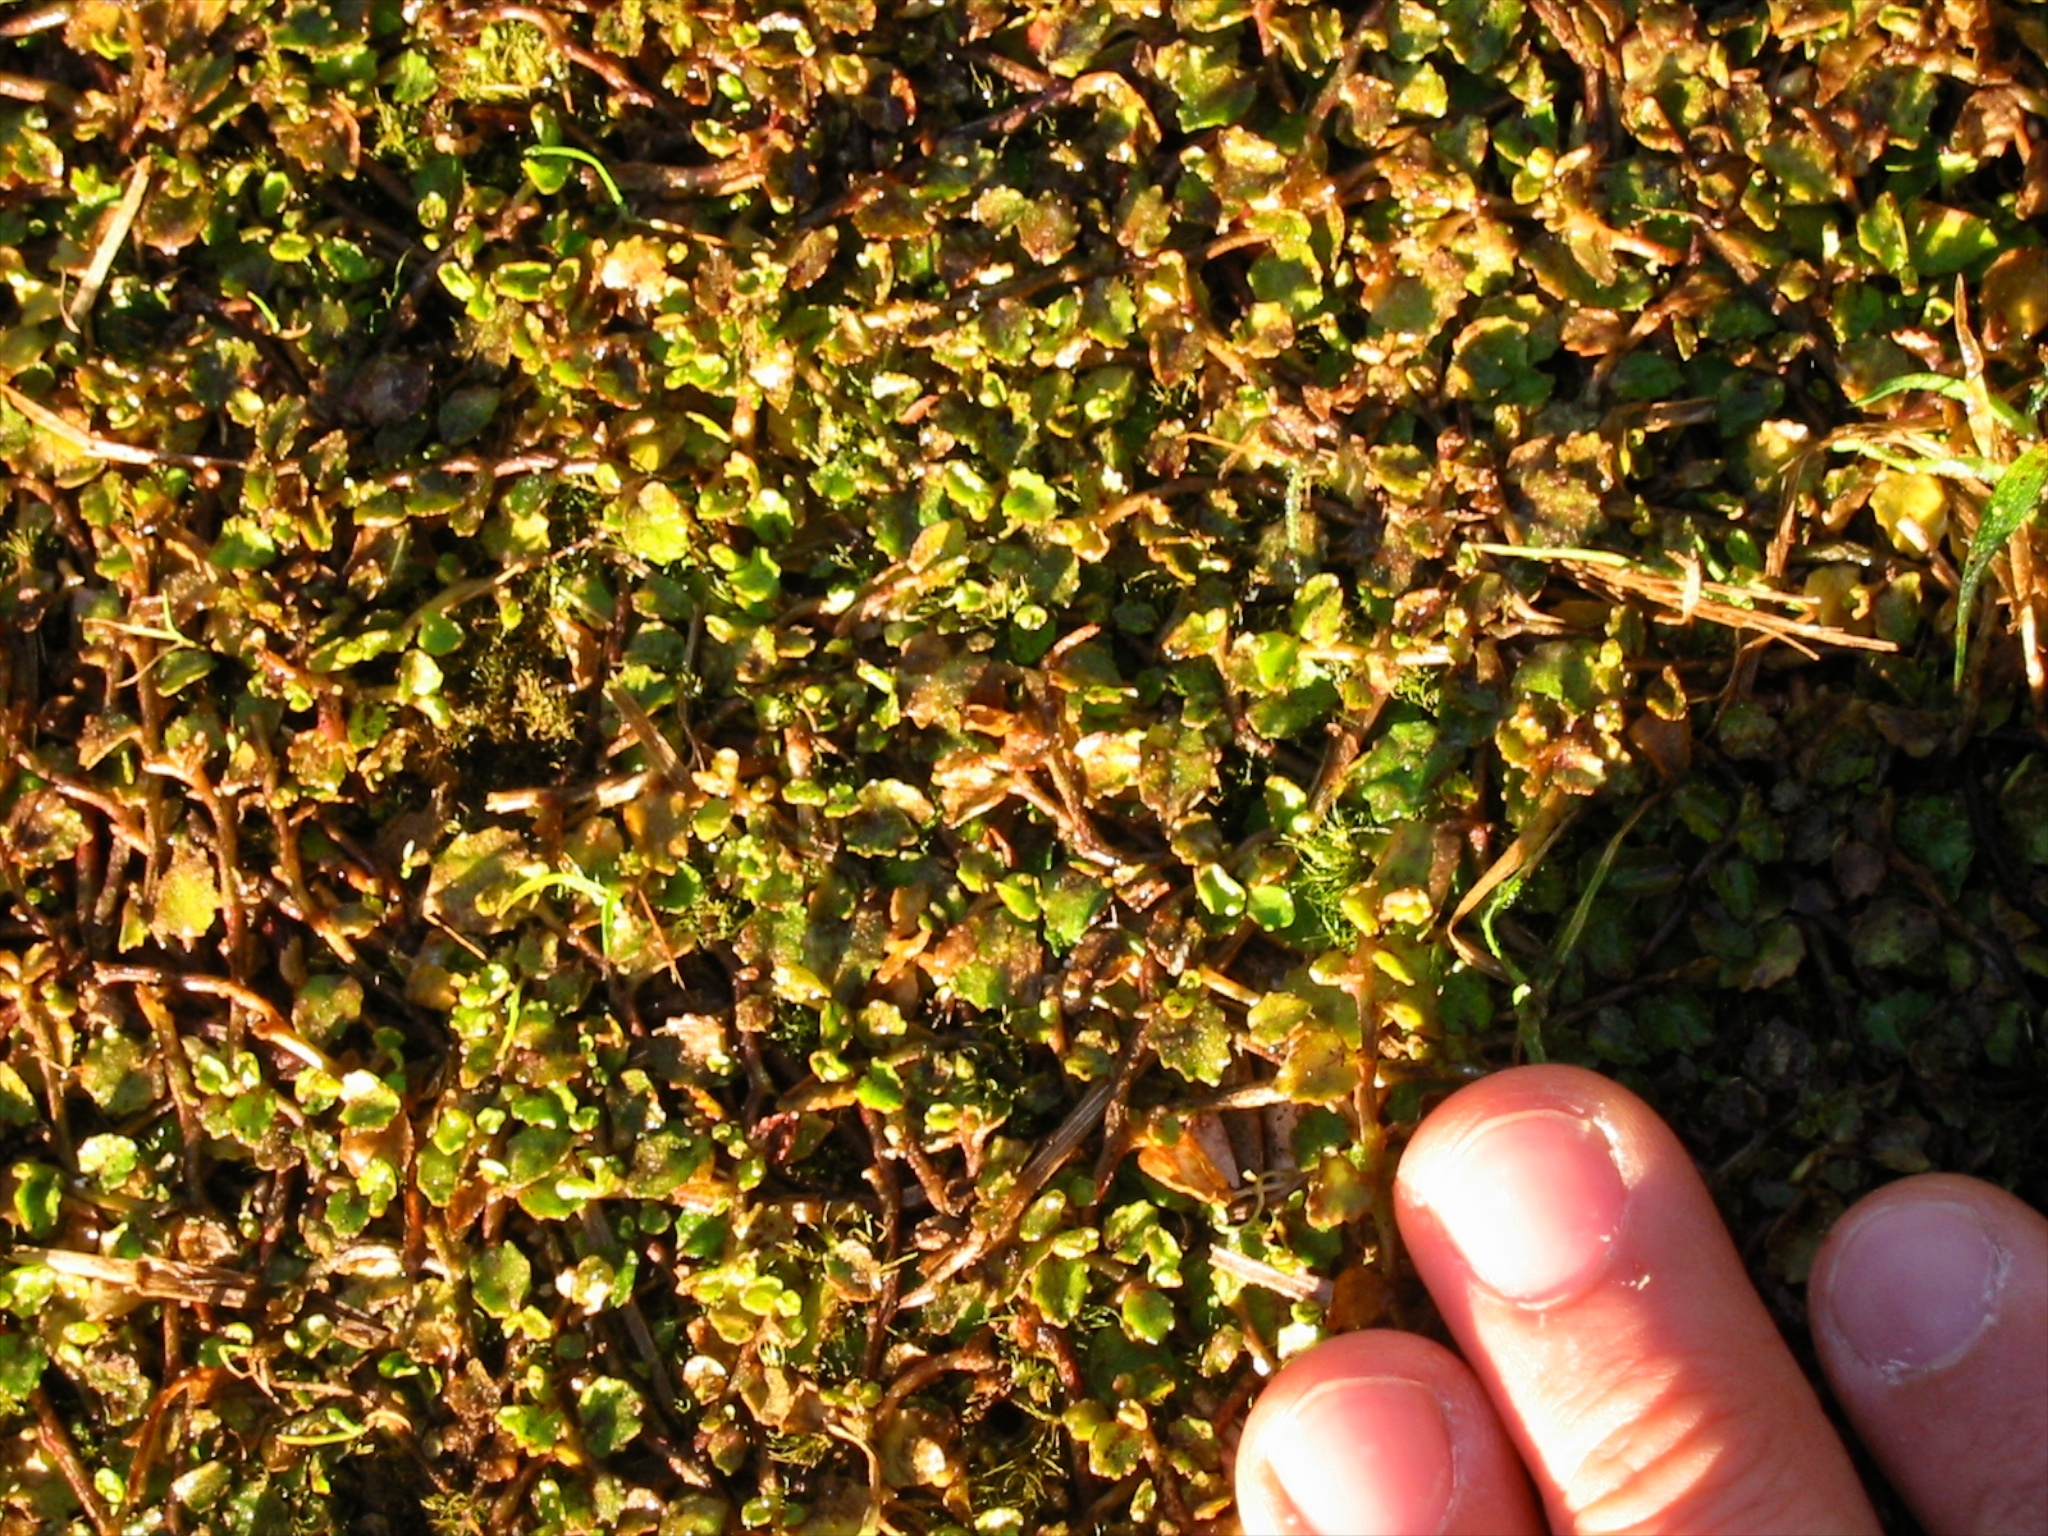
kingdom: Plantae
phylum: Tracheophyta
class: Magnoliopsida
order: Asterales
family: Campanulaceae
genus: Lobelia
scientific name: Lobelia angulata
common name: Lawn lobelia
